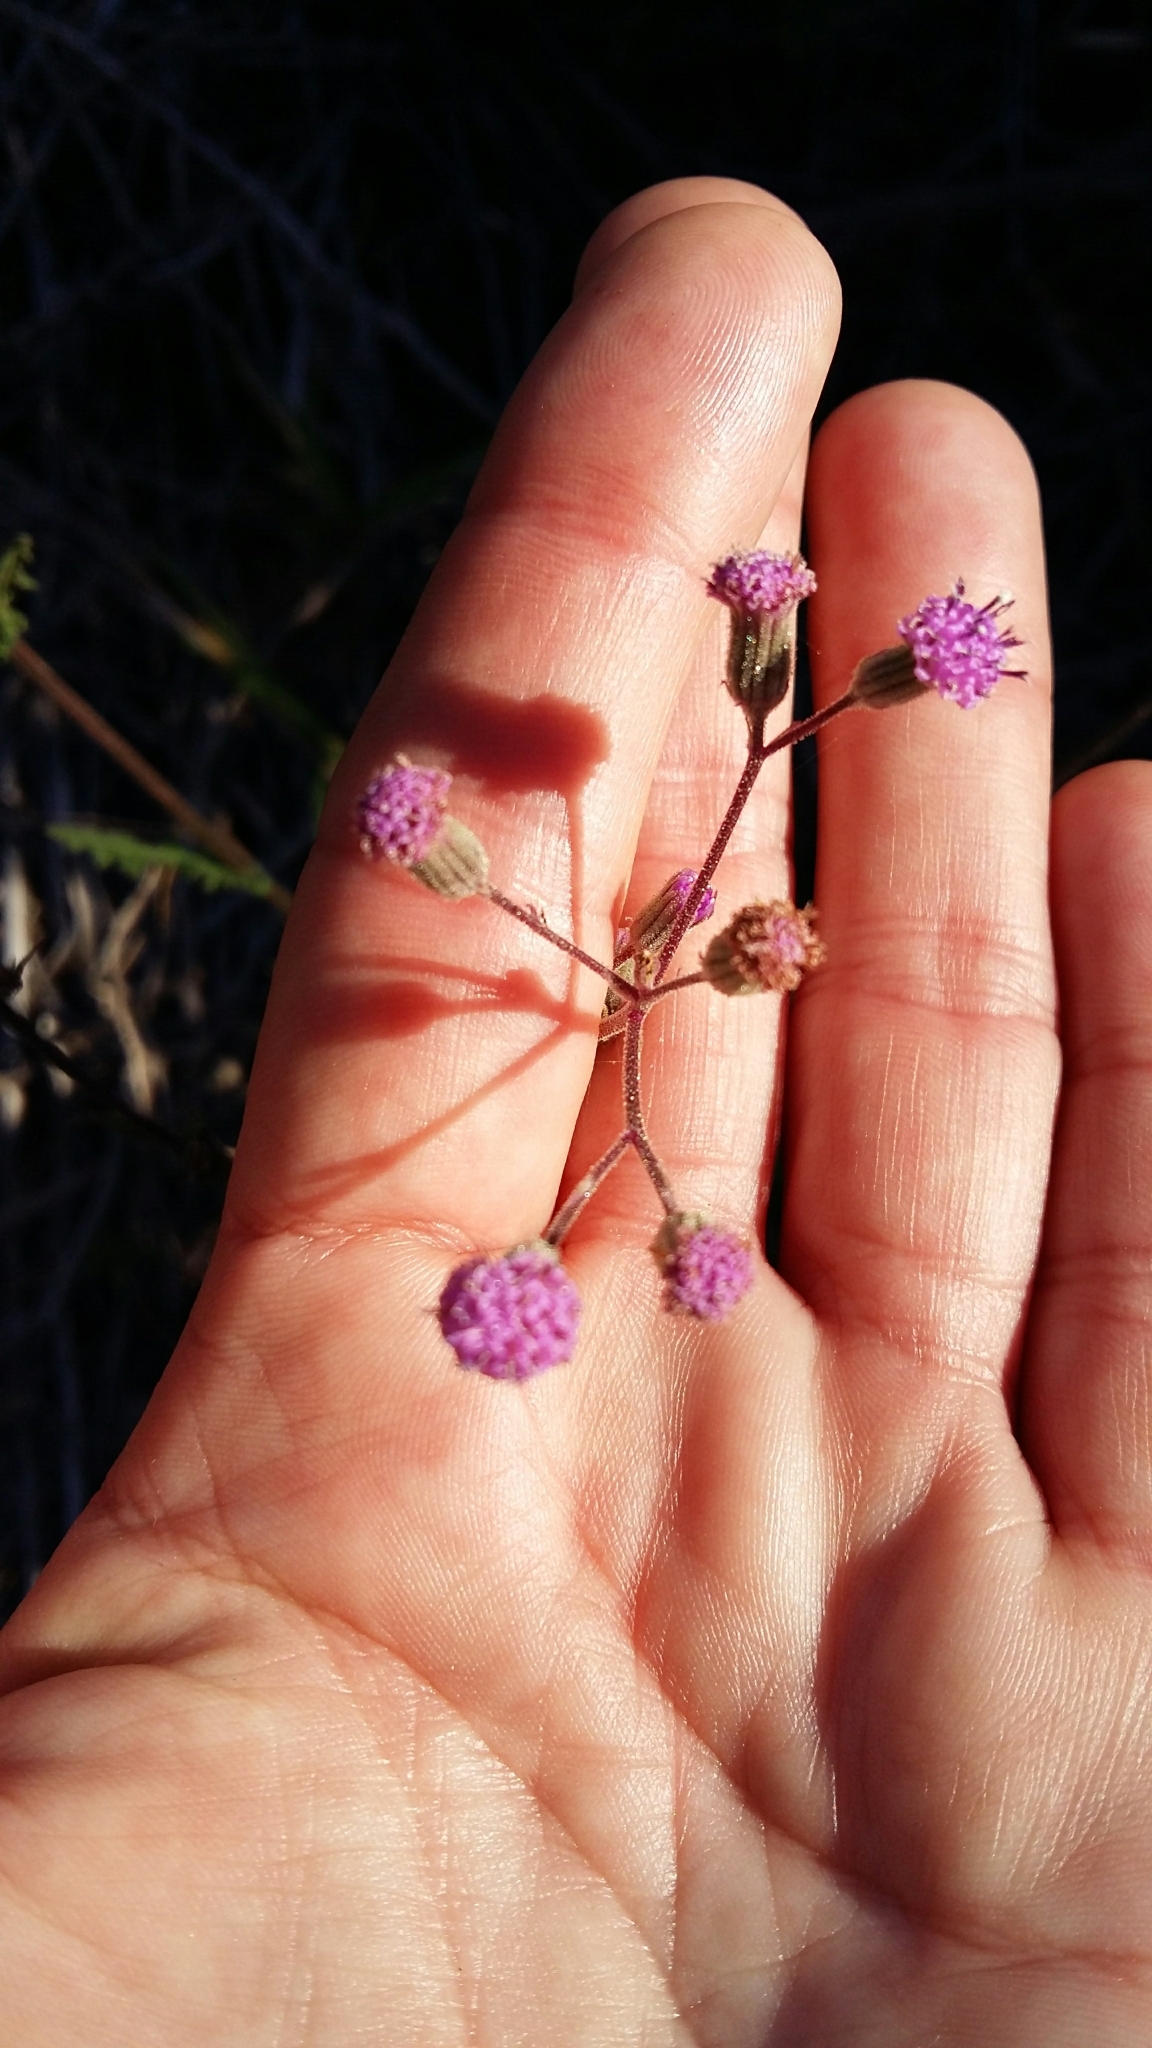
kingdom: Plantae
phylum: Tracheophyta
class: Magnoliopsida
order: Asterales
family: Asteraceae
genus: Senecio
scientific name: Senecio purpureus
